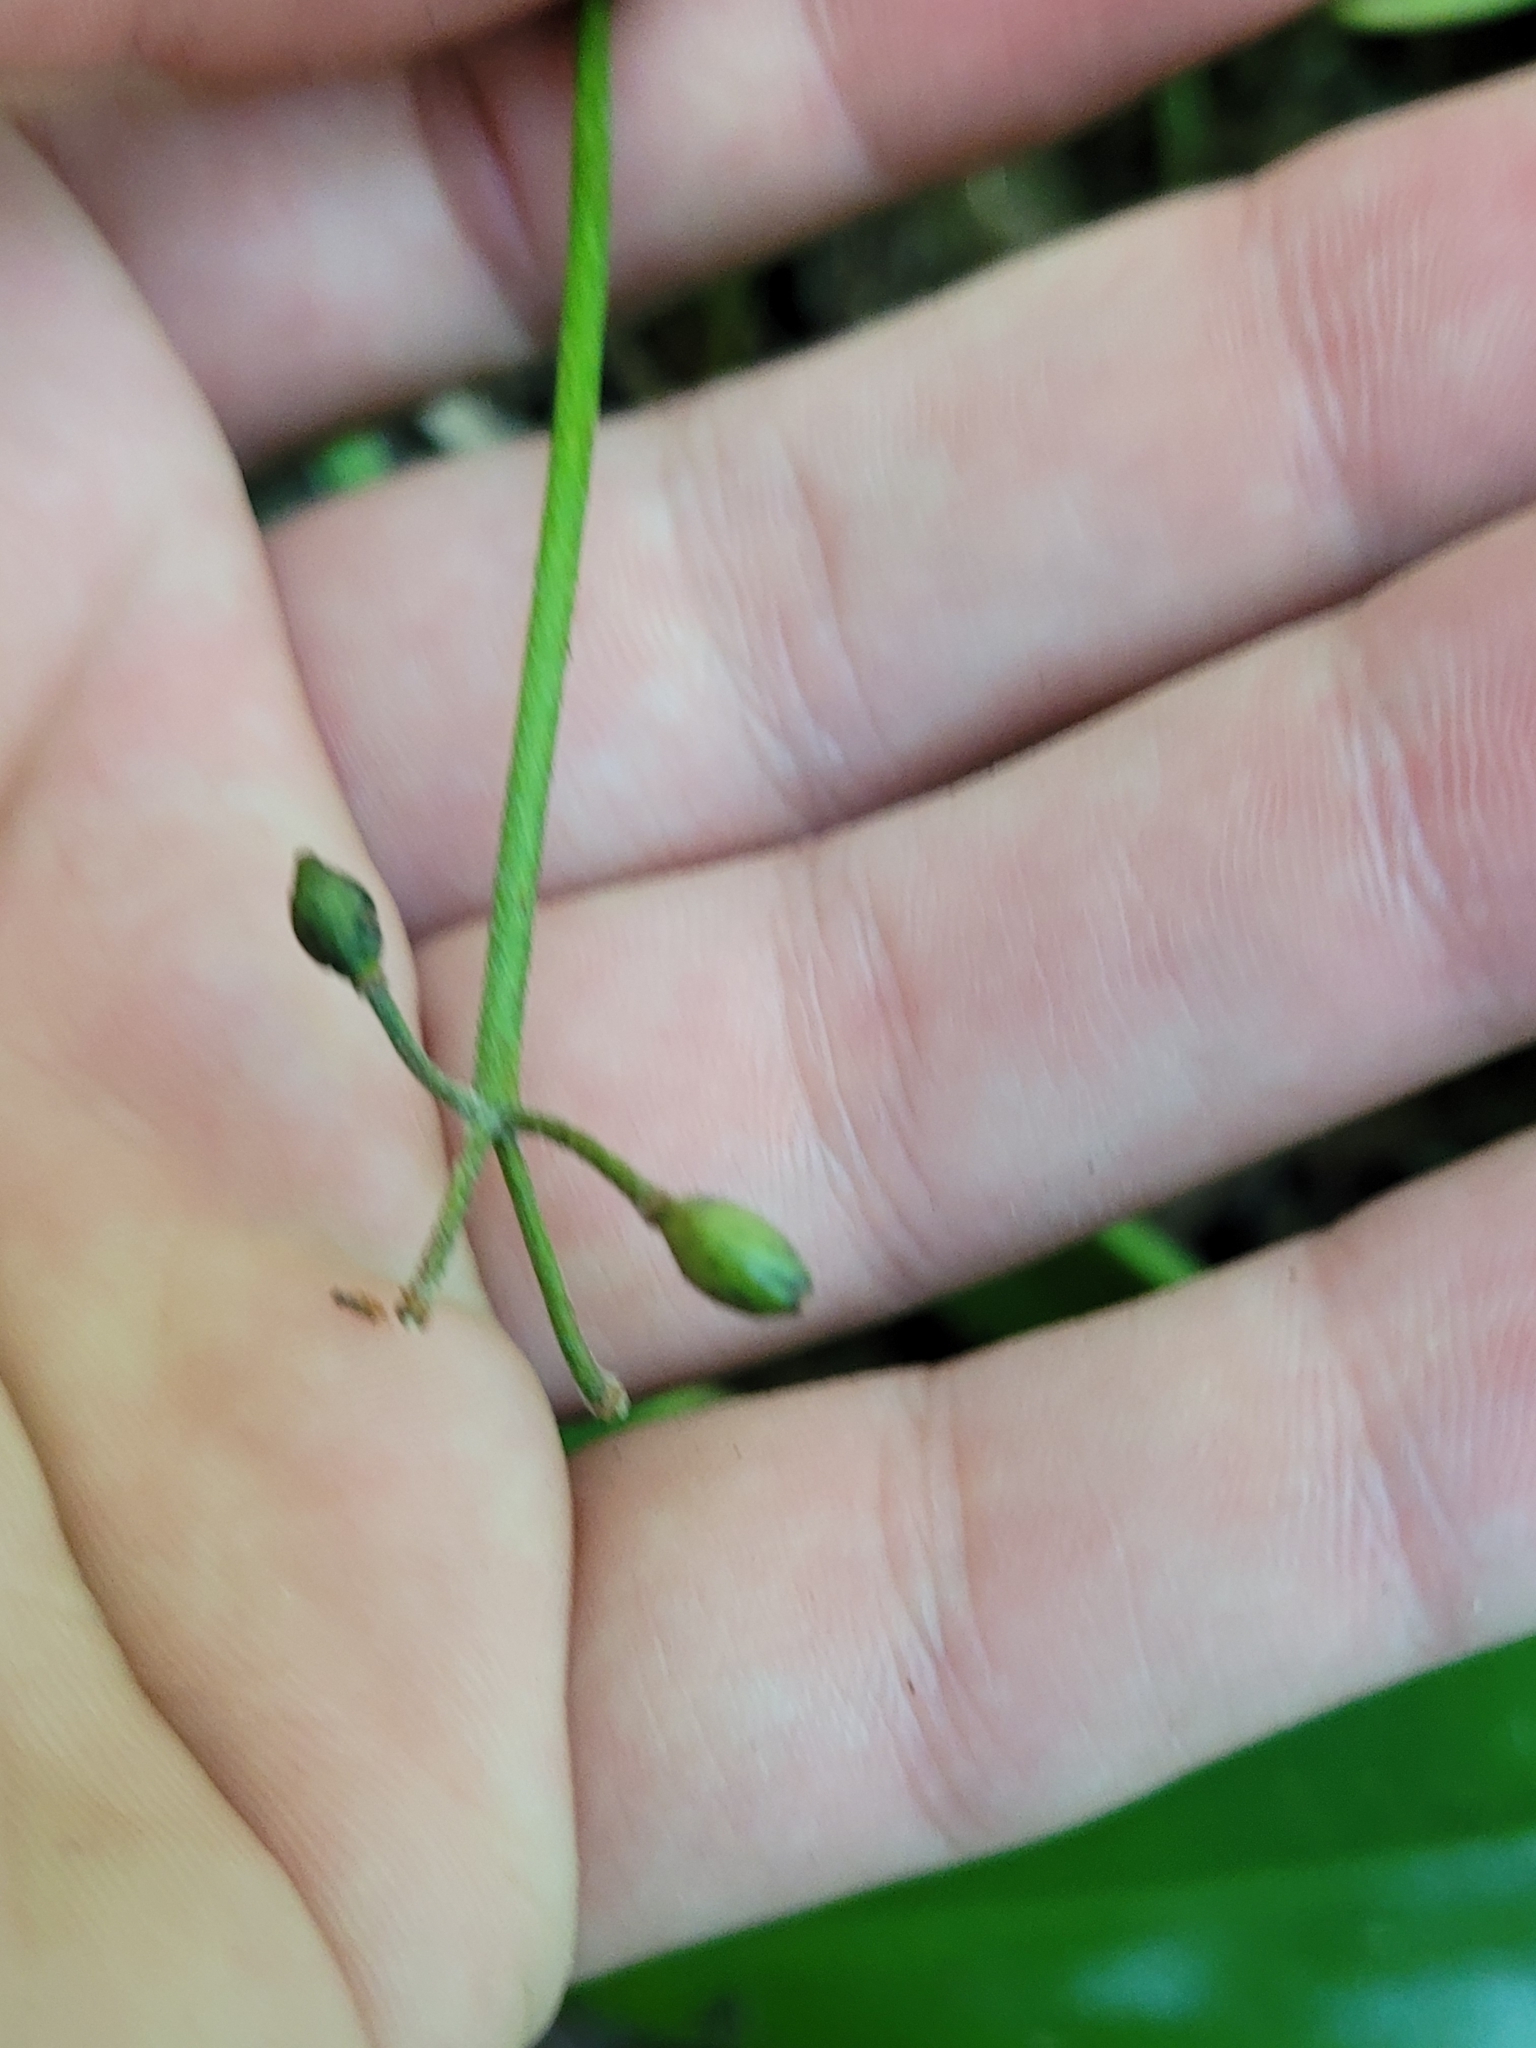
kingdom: Plantae
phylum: Tracheophyta
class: Liliopsida
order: Liliales
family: Liliaceae
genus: Clintonia
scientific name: Clintonia borealis
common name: Yellow clintonia
